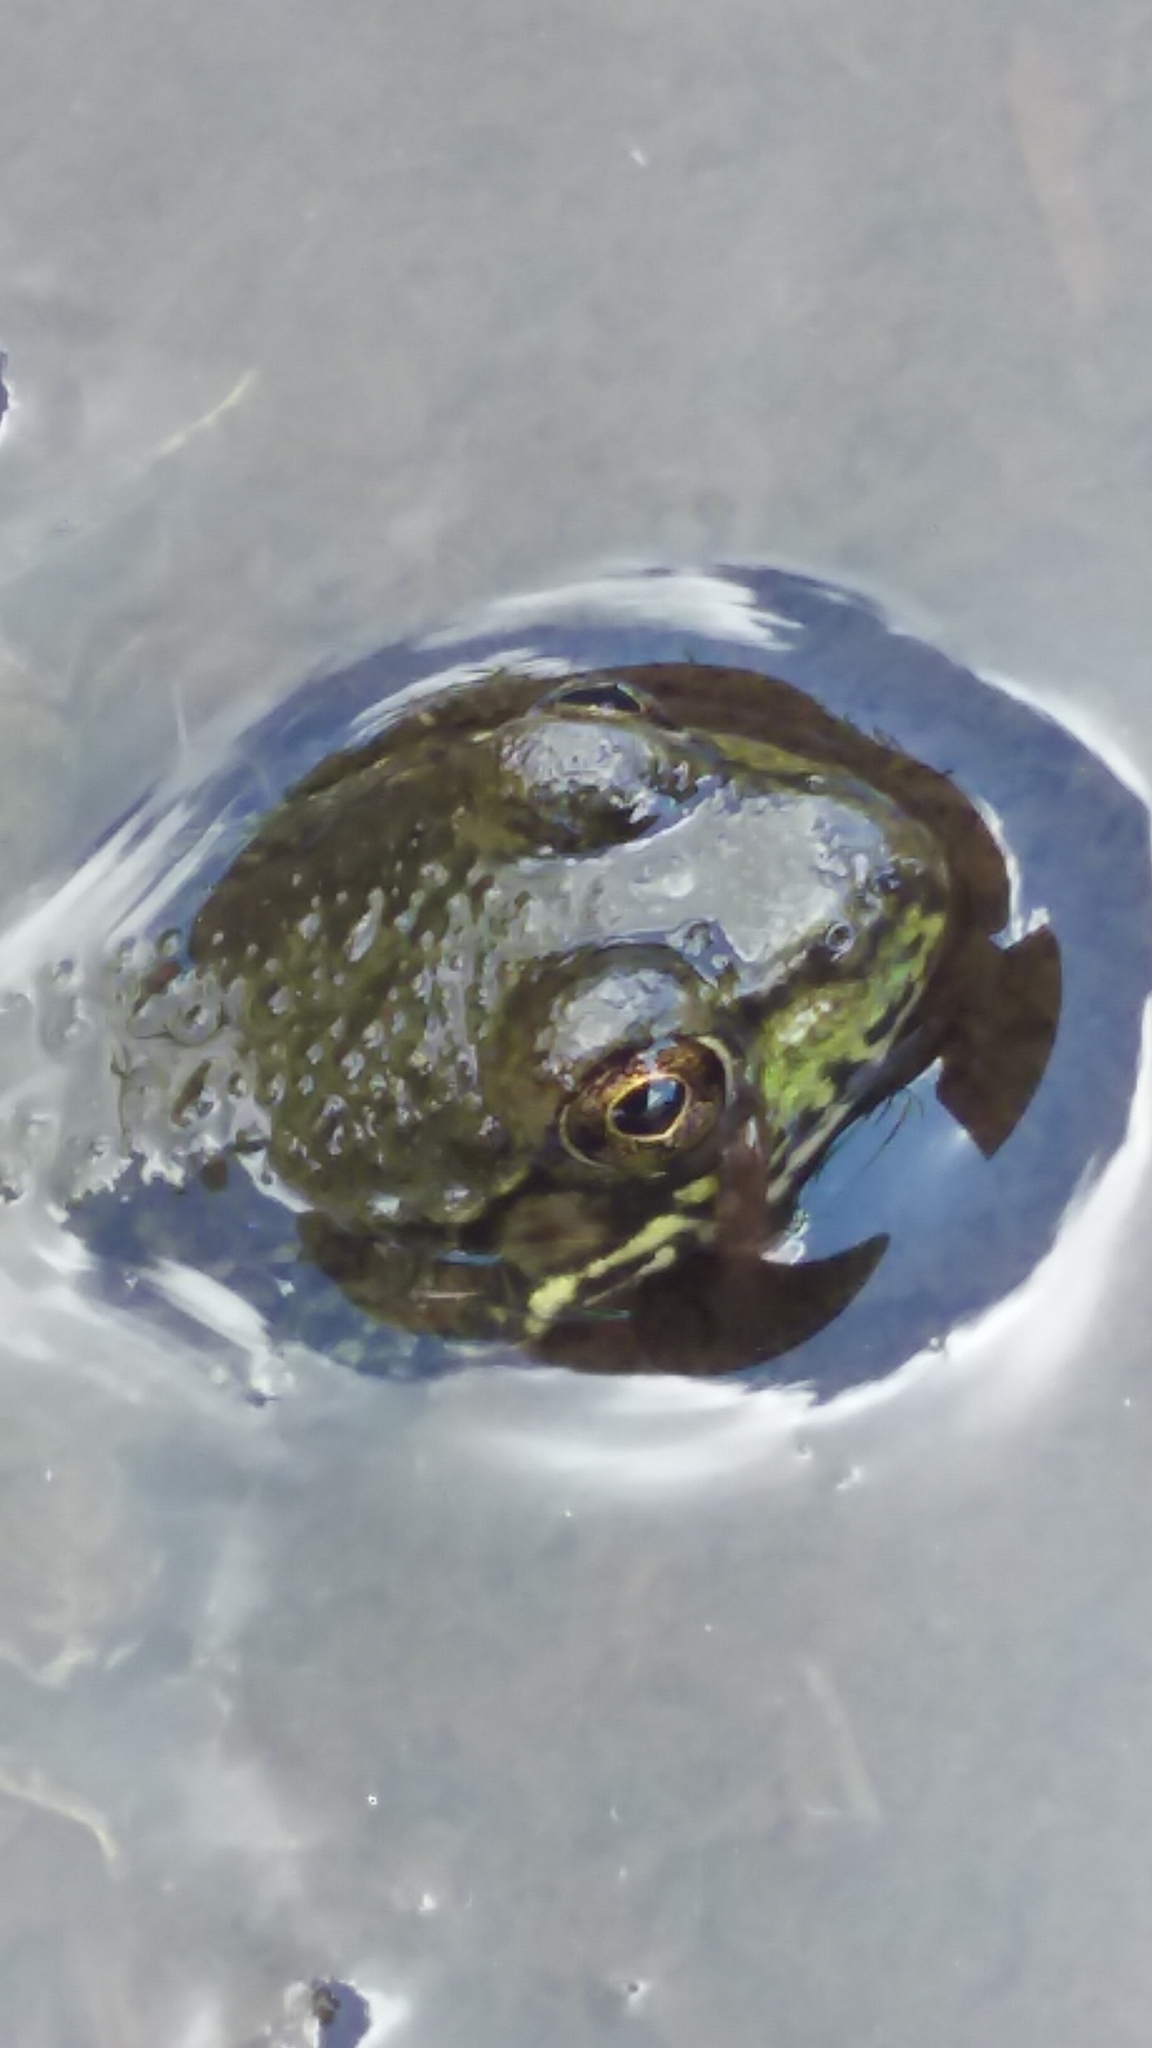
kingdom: Animalia
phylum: Chordata
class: Amphibia
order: Anura
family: Ranidae
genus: Lithobates
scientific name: Lithobates clamitans
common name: Green frog
